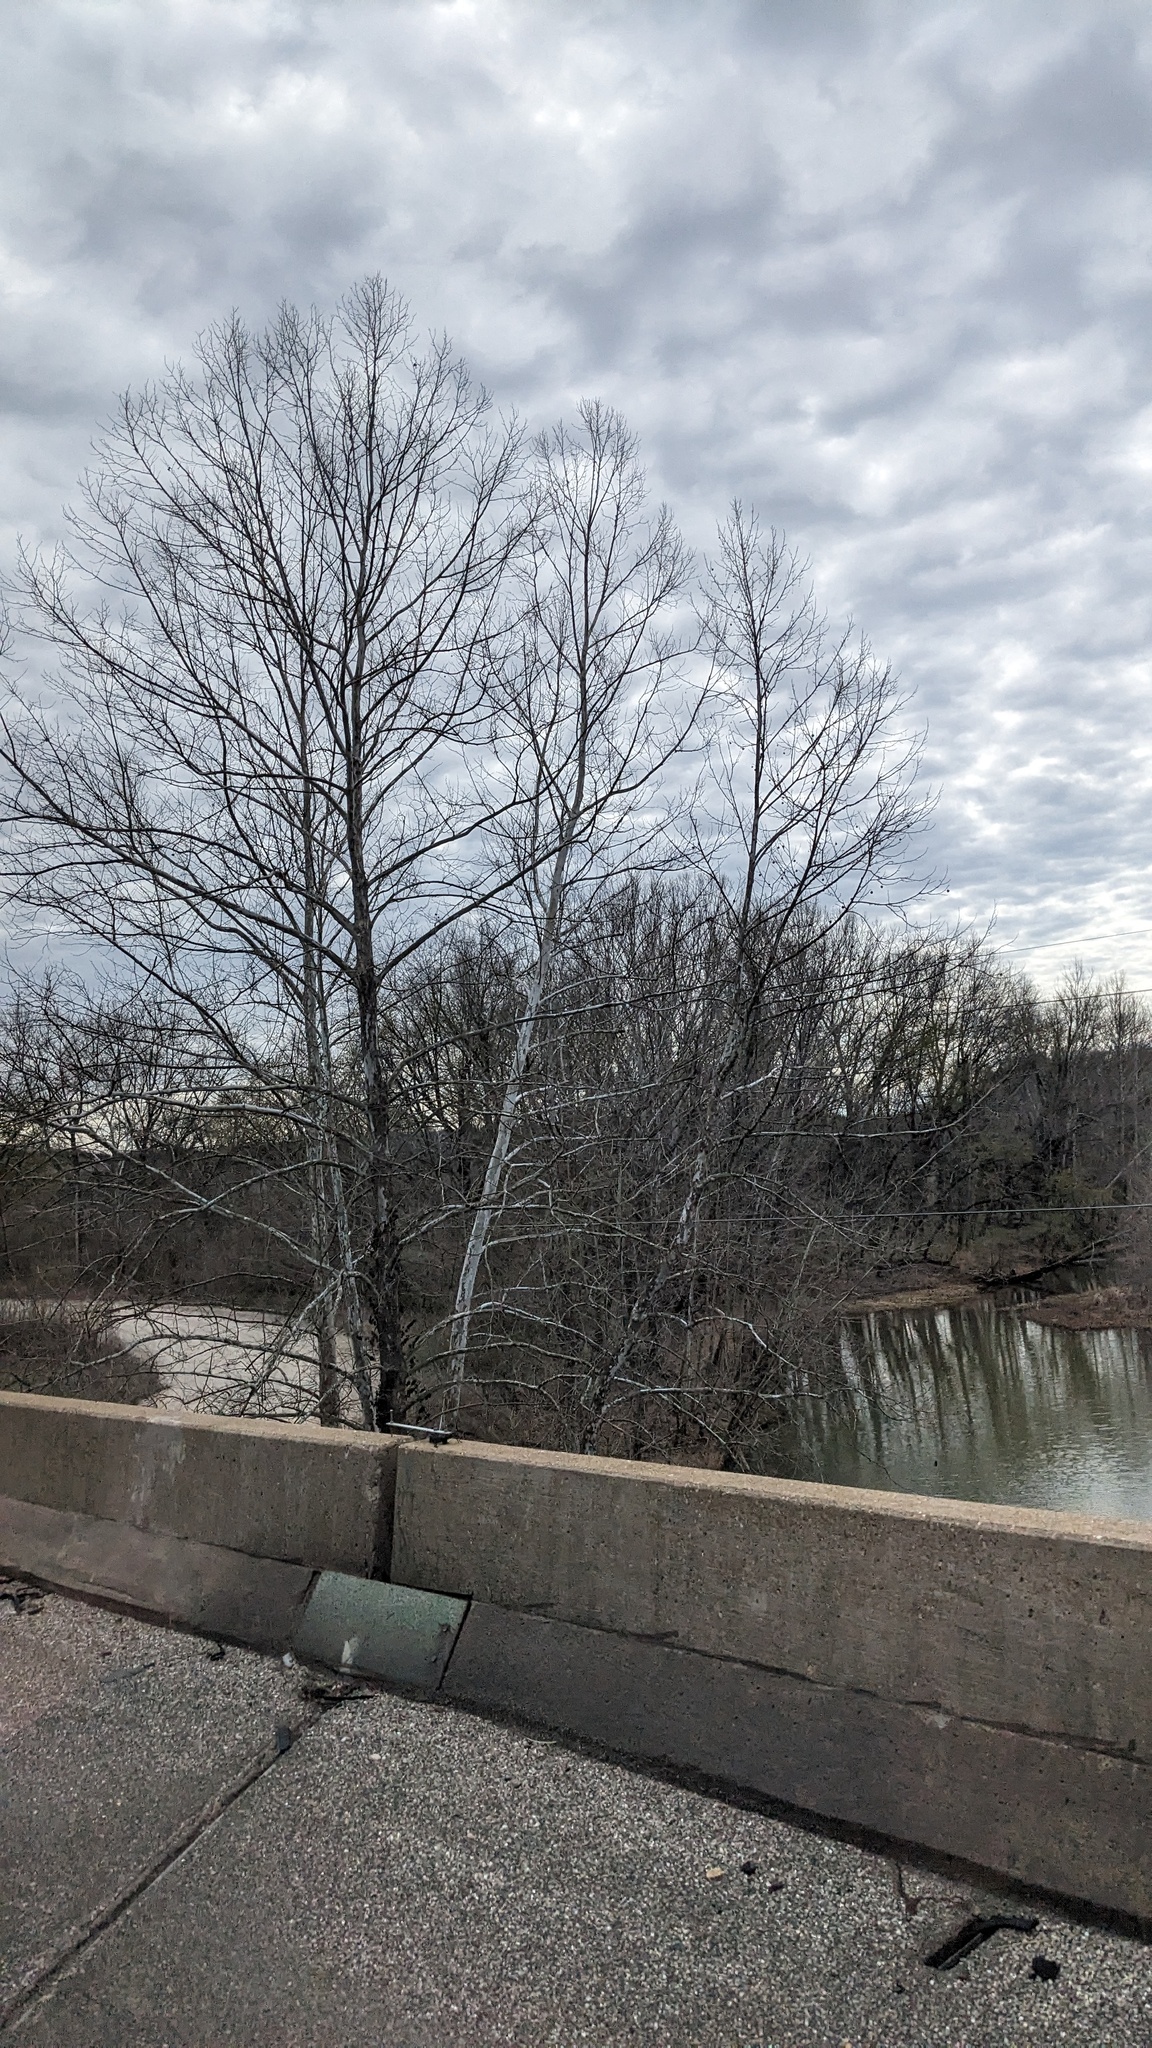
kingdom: Plantae
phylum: Tracheophyta
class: Magnoliopsida
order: Proteales
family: Platanaceae
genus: Platanus
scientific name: Platanus occidentalis
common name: American sycamore
